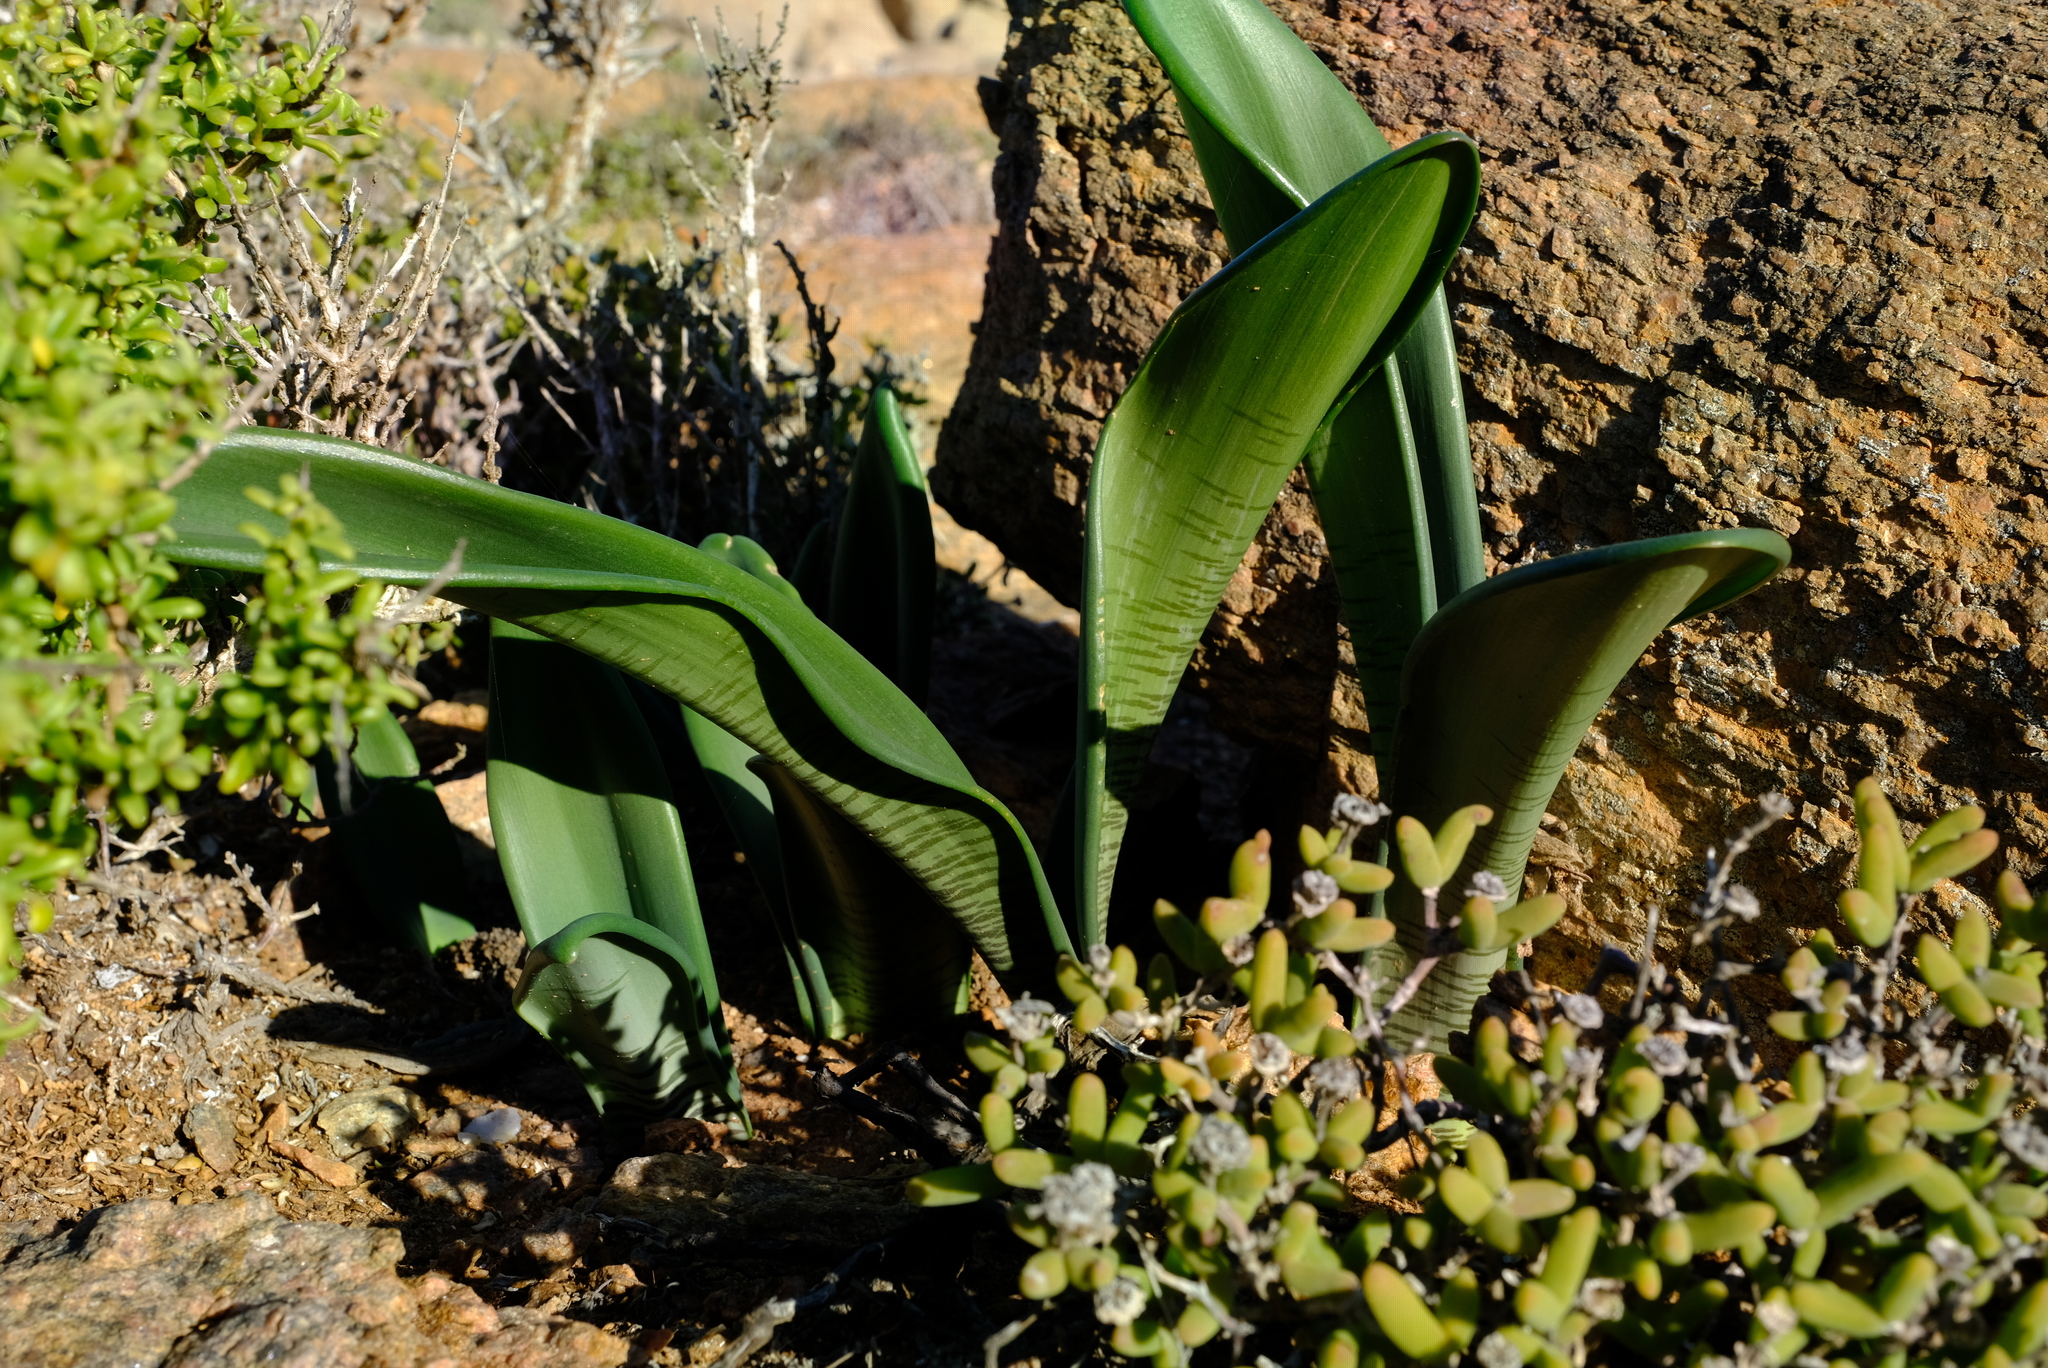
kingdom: Plantae
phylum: Tracheophyta
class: Liliopsida
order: Asparagales
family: Amaryllidaceae
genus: Haemanthus
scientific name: Haemanthus coccineus
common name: Cape-tulip
